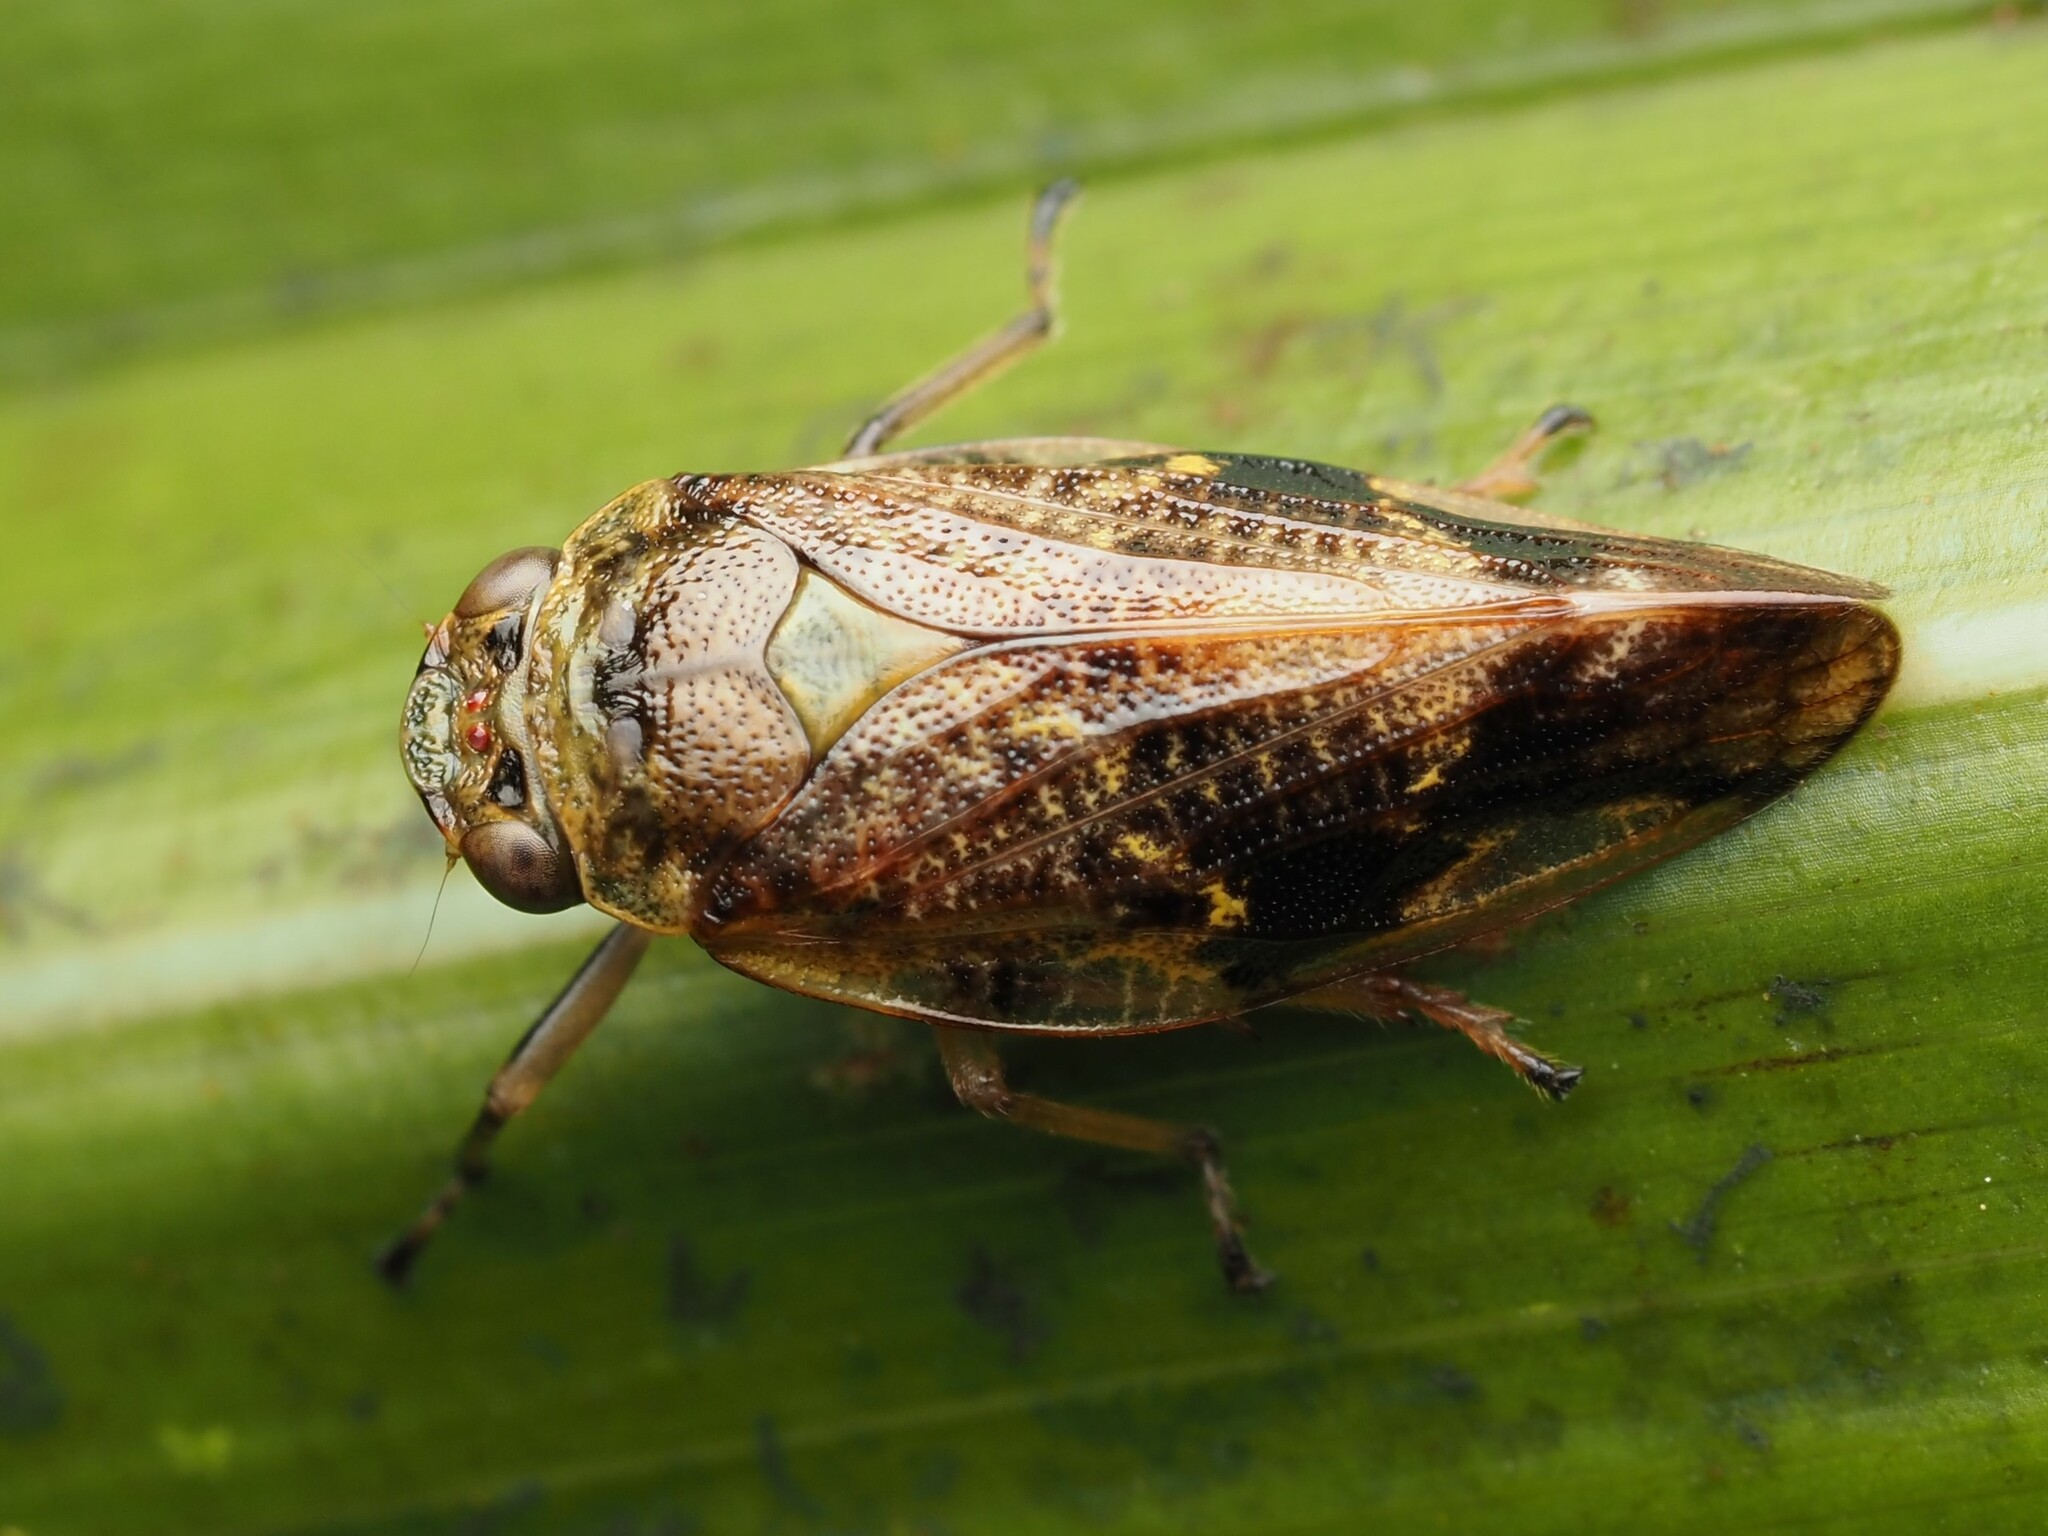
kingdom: Animalia
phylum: Arthropoda
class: Insecta
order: Hemiptera
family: Aphrophoridae
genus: Pseudaphronella
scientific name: Pseudaphronella jactator
